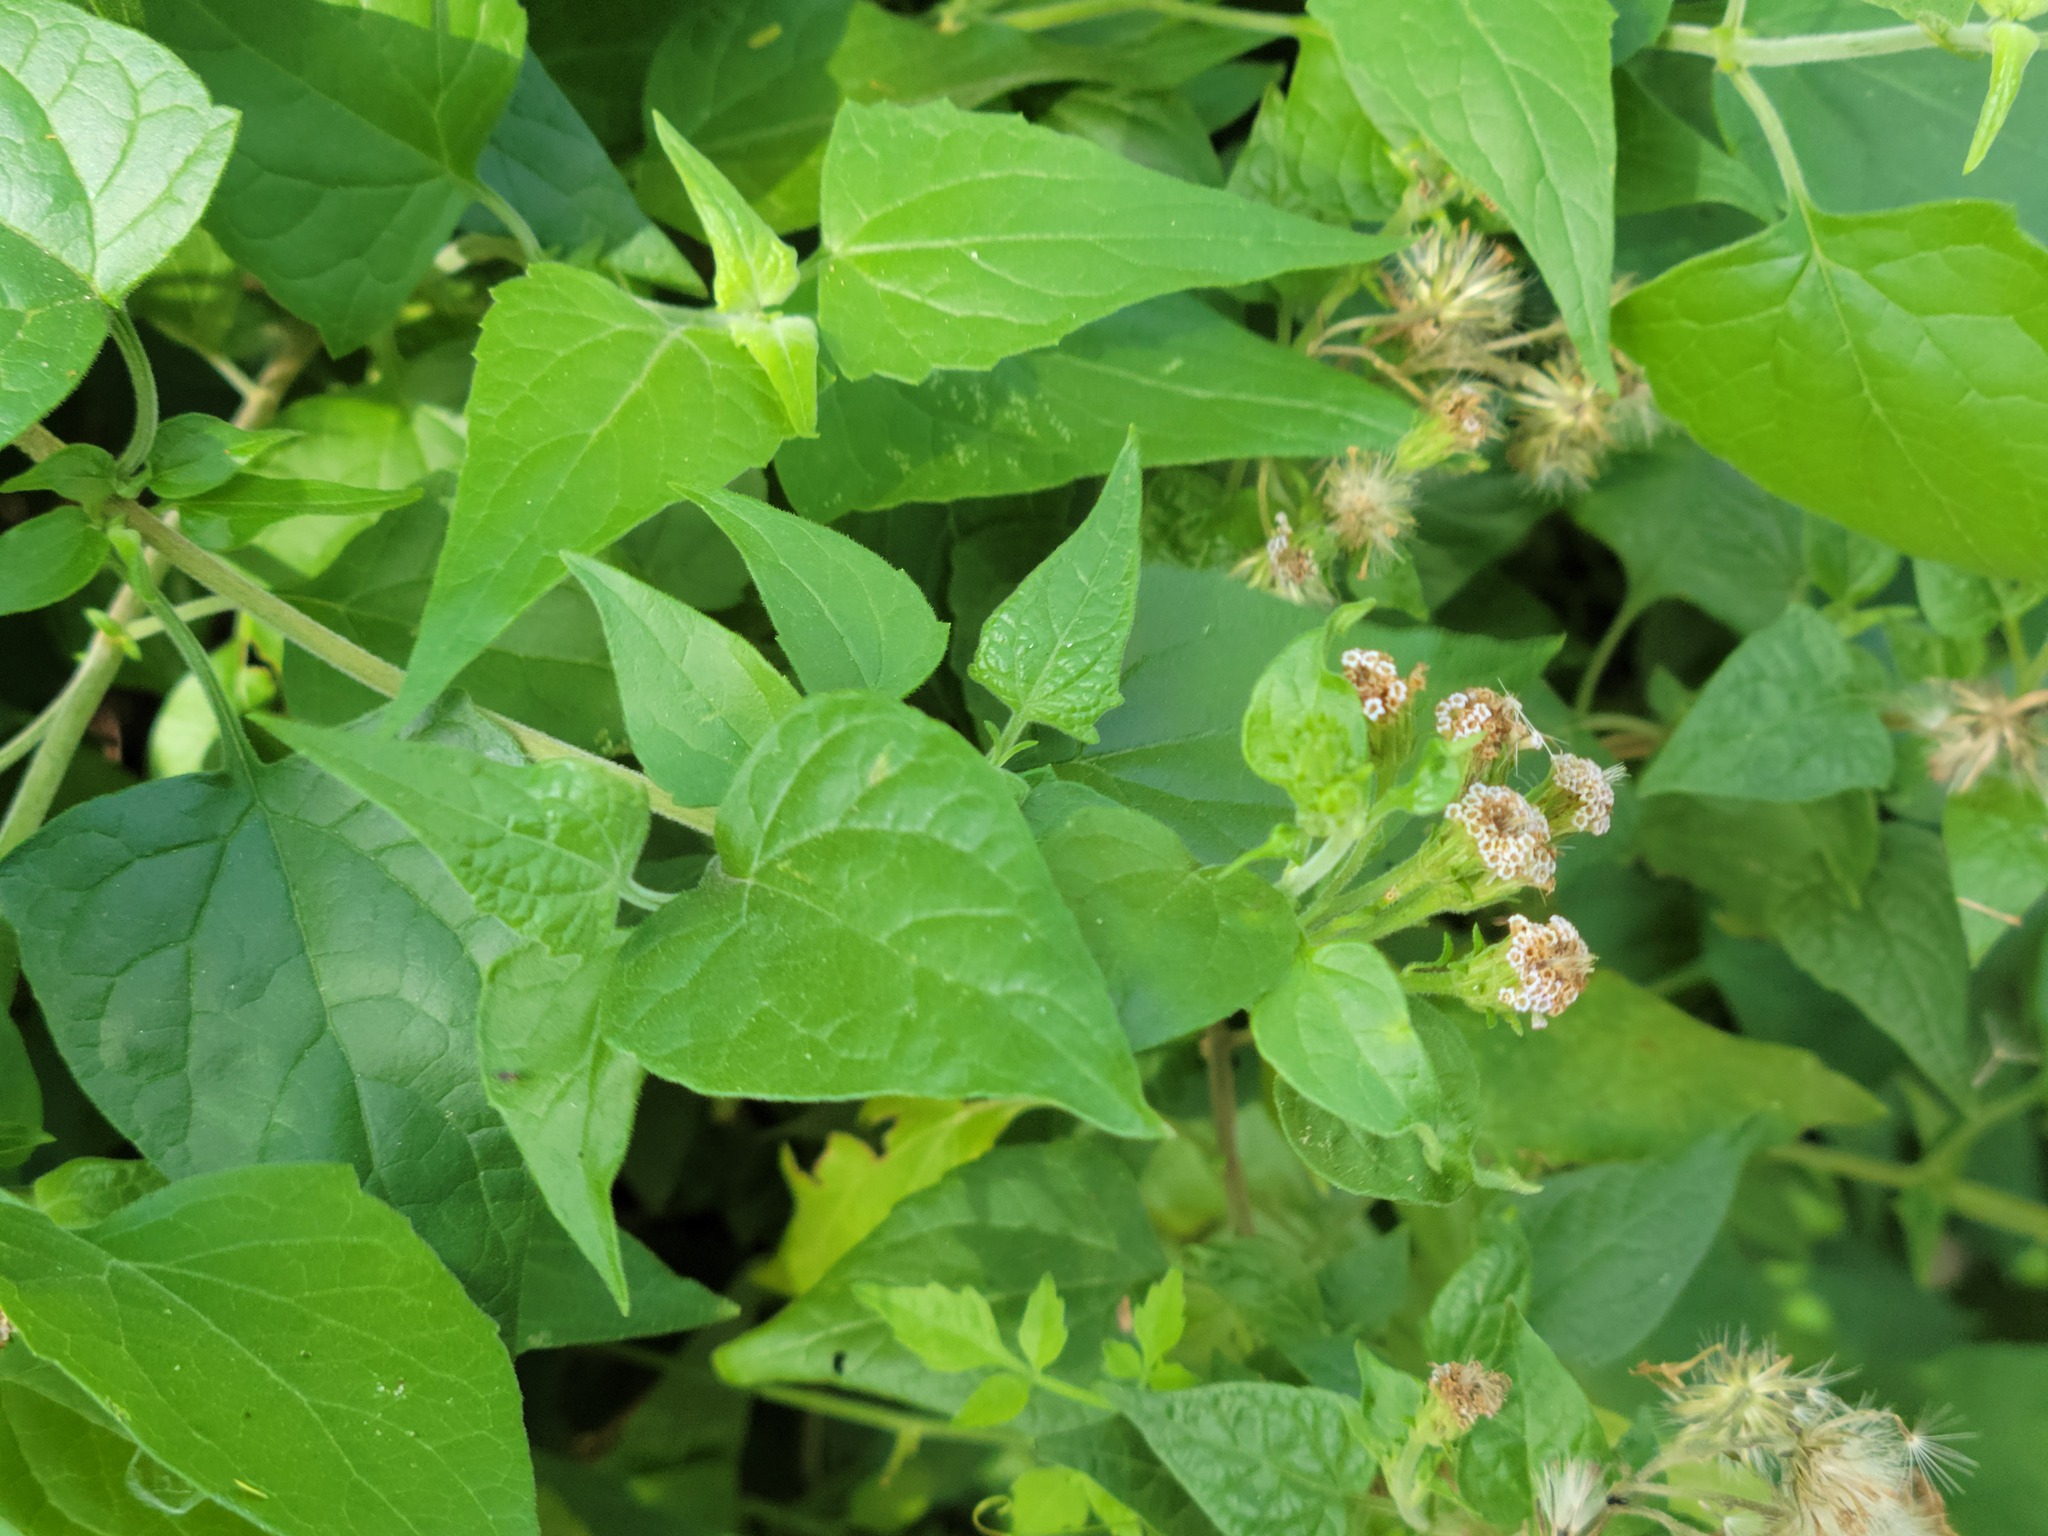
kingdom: Plantae
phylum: Tracheophyta
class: Magnoliopsida
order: Asterales
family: Asteraceae
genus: Tamaulipa
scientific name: Tamaulipa azurea
